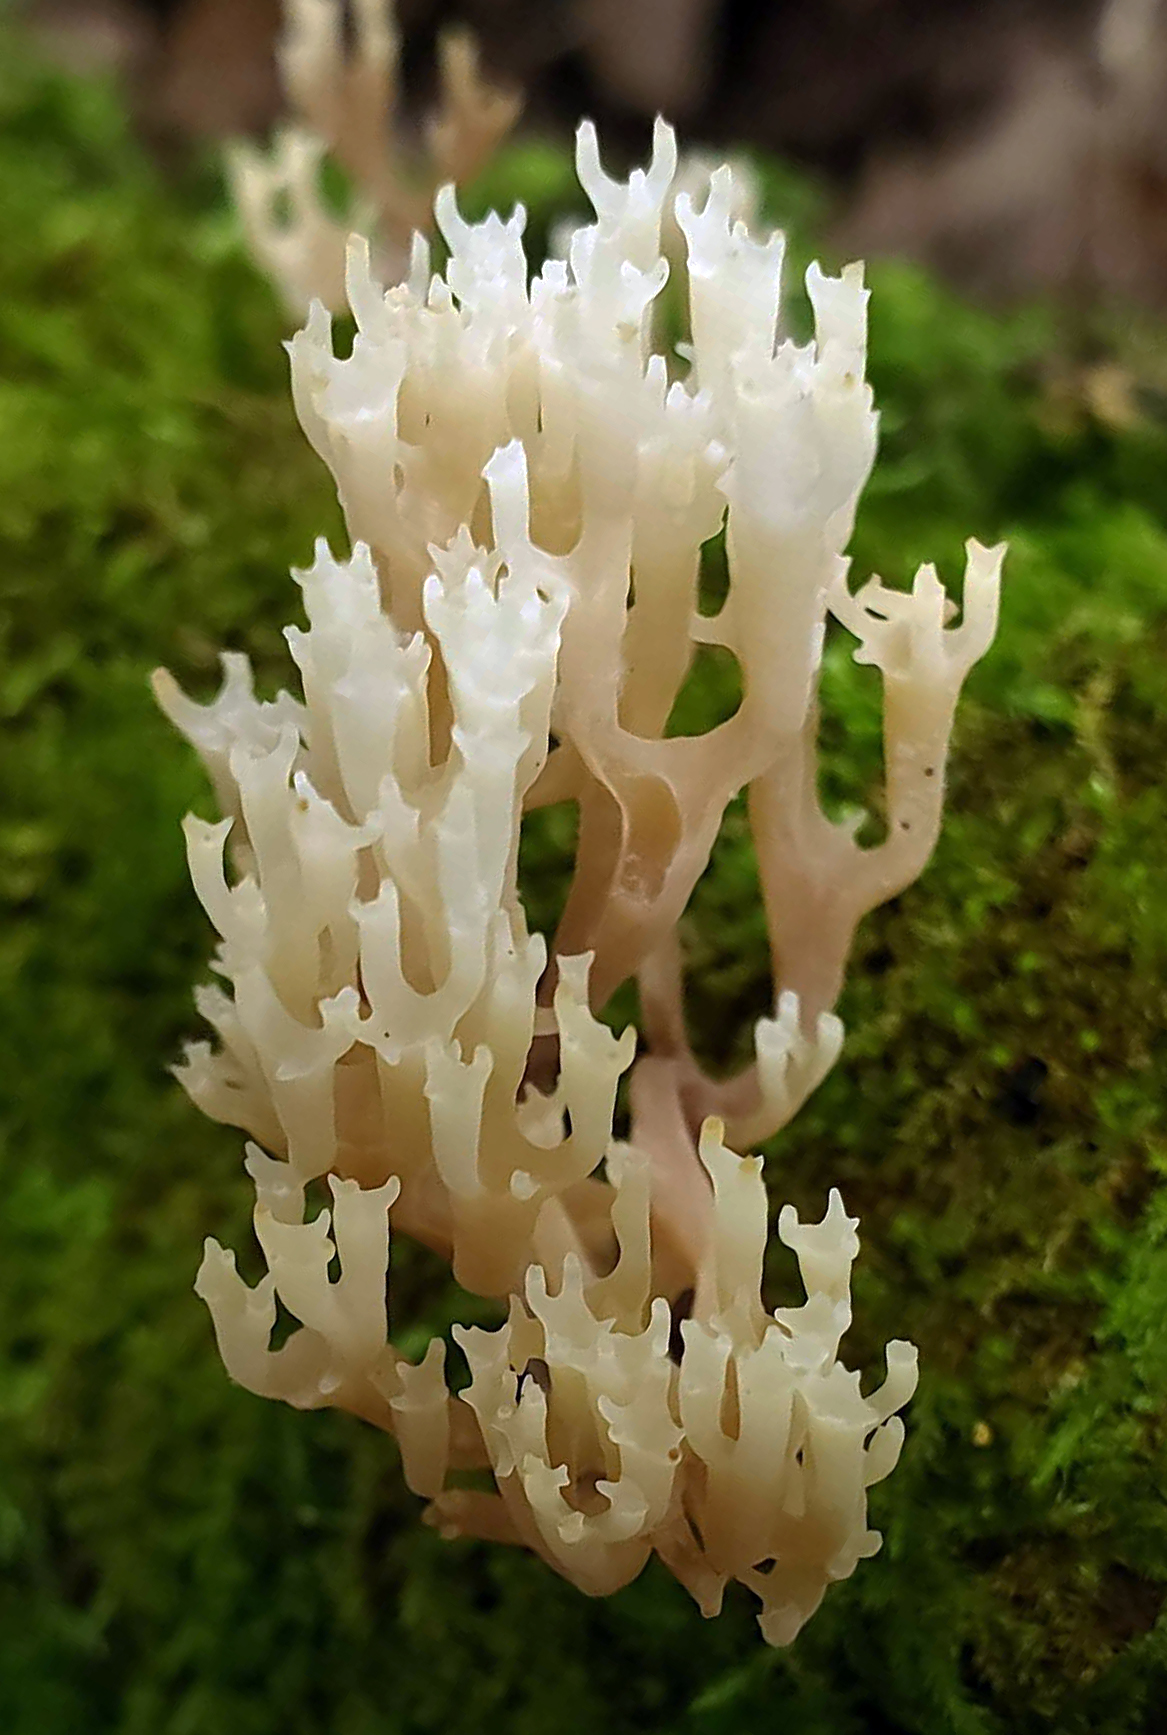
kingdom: Fungi
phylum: Basidiomycota
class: Agaricomycetes
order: Russulales
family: Auriscalpiaceae
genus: Artomyces
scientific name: Artomyces pyxidatus
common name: Crown-tipped coral fungus
